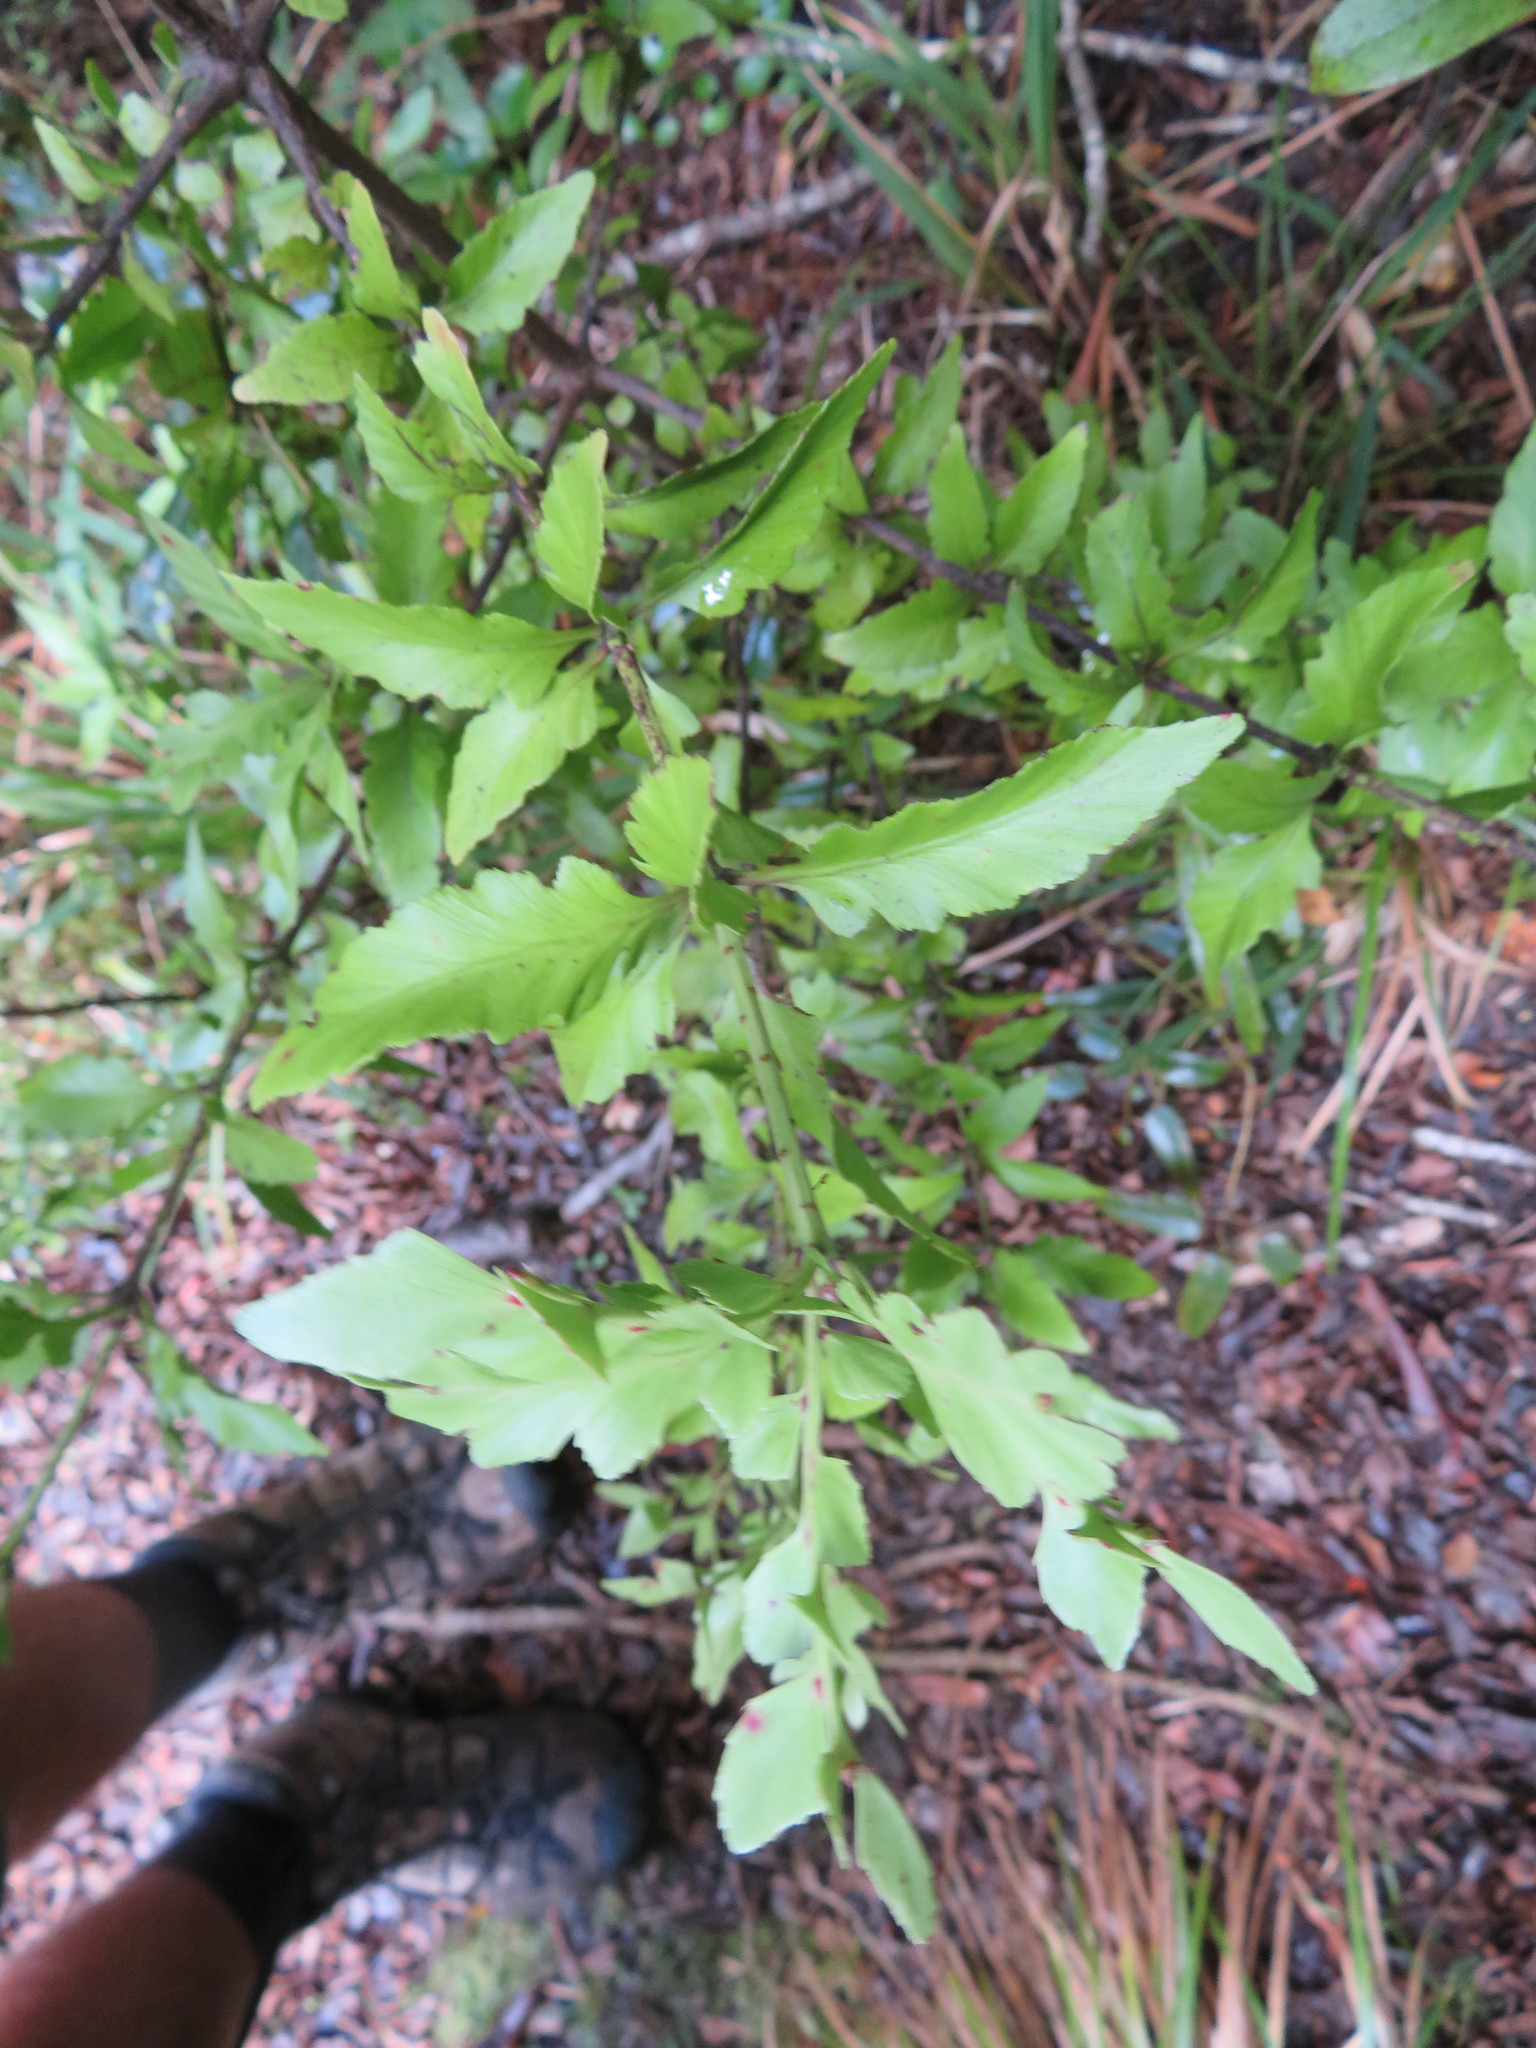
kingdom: Plantae
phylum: Tracheophyta
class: Pinopsida
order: Pinales
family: Phyllocladaceae
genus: Phyllocladus
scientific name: Phyllocladus trichomanoides
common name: Celery pine
